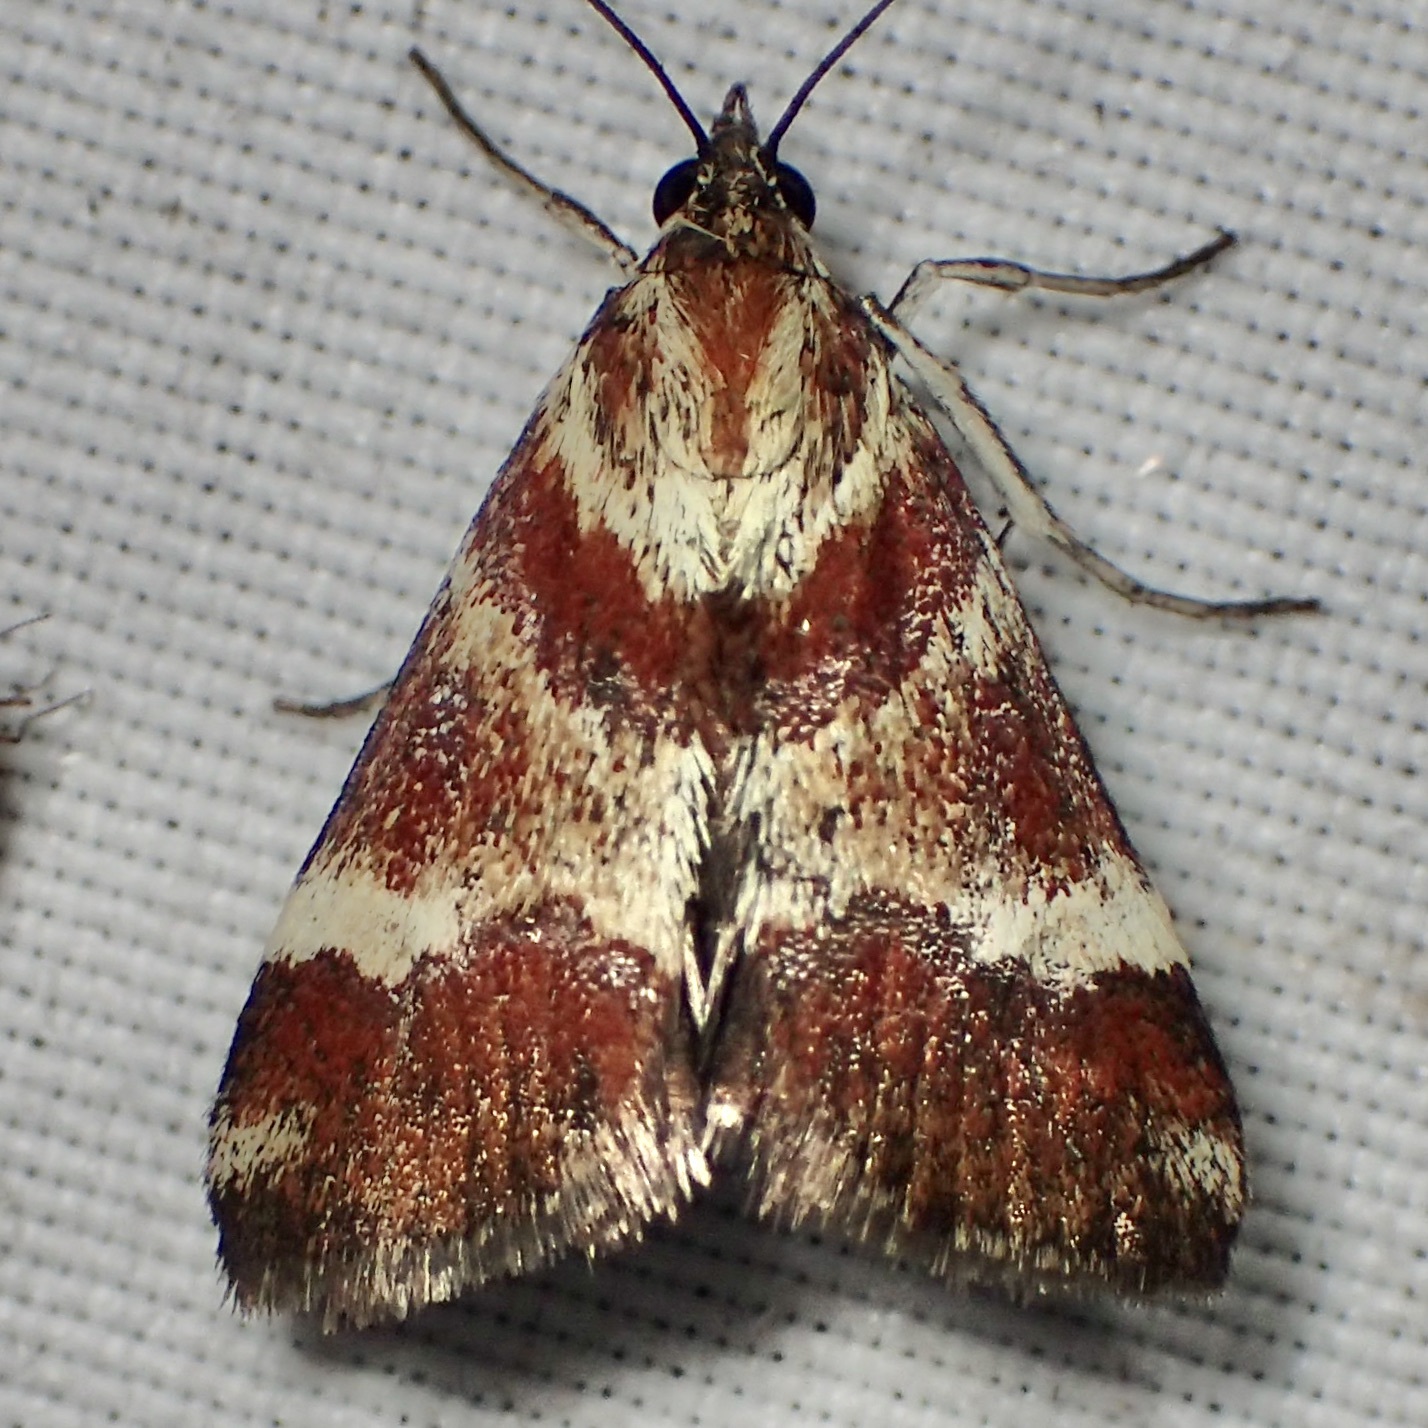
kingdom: Animalia
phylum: Arthropoda
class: Insecta
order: Lepidoptera
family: Crambidae
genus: Noctuelia
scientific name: Noctuelia Mimoschinia rufofascialis
